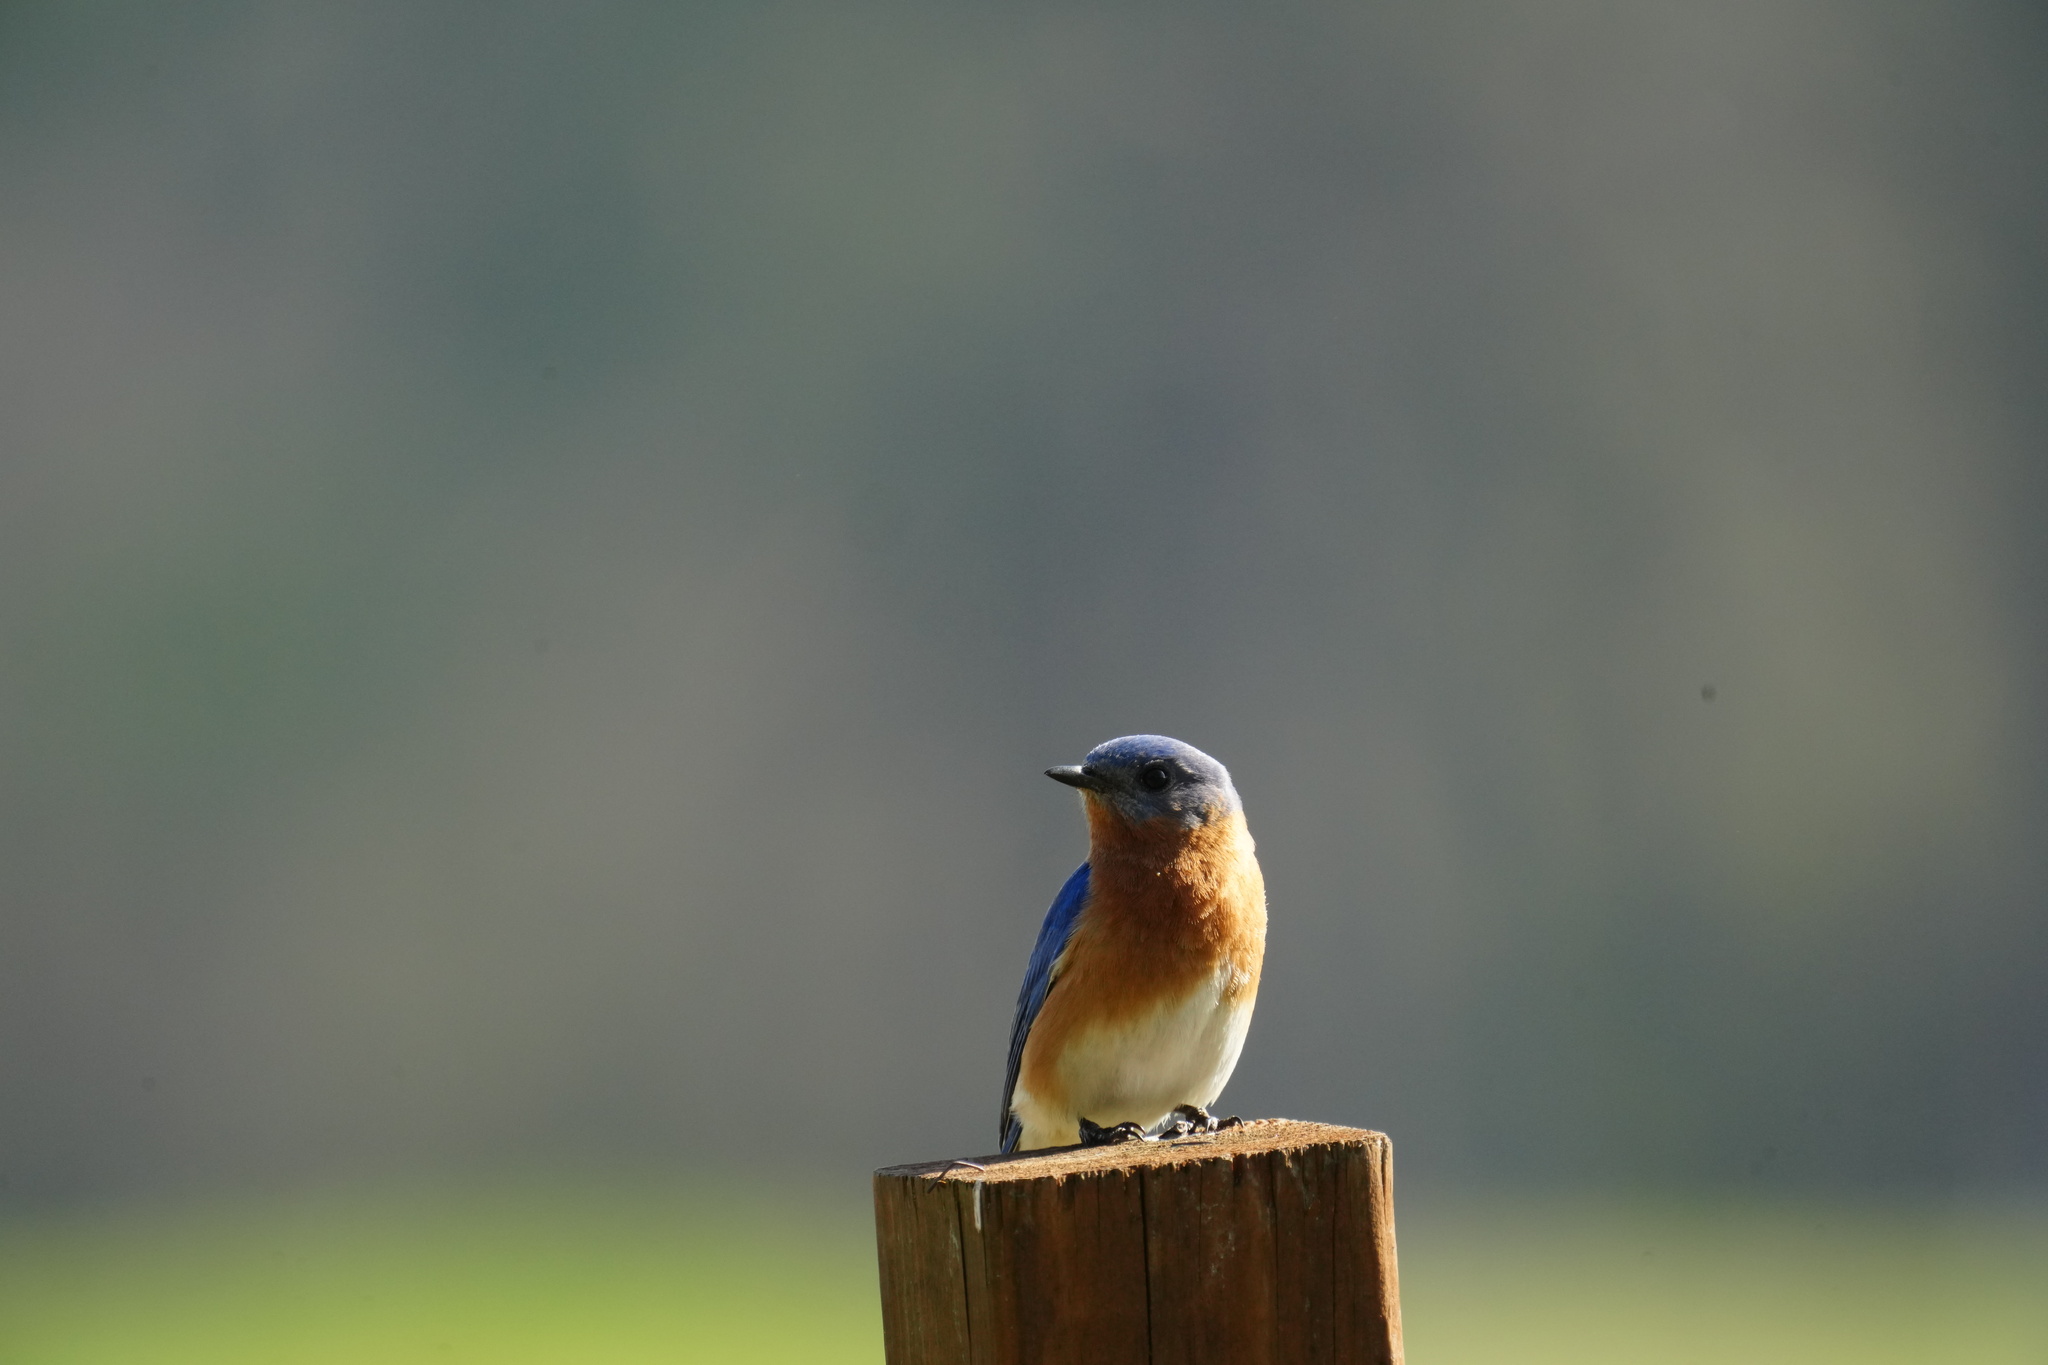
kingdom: Animalia
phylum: Chordata
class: Aves
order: Passeriformes
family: Turdidae
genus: Sialia
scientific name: Sialia sialis
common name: Eastern bluebird
